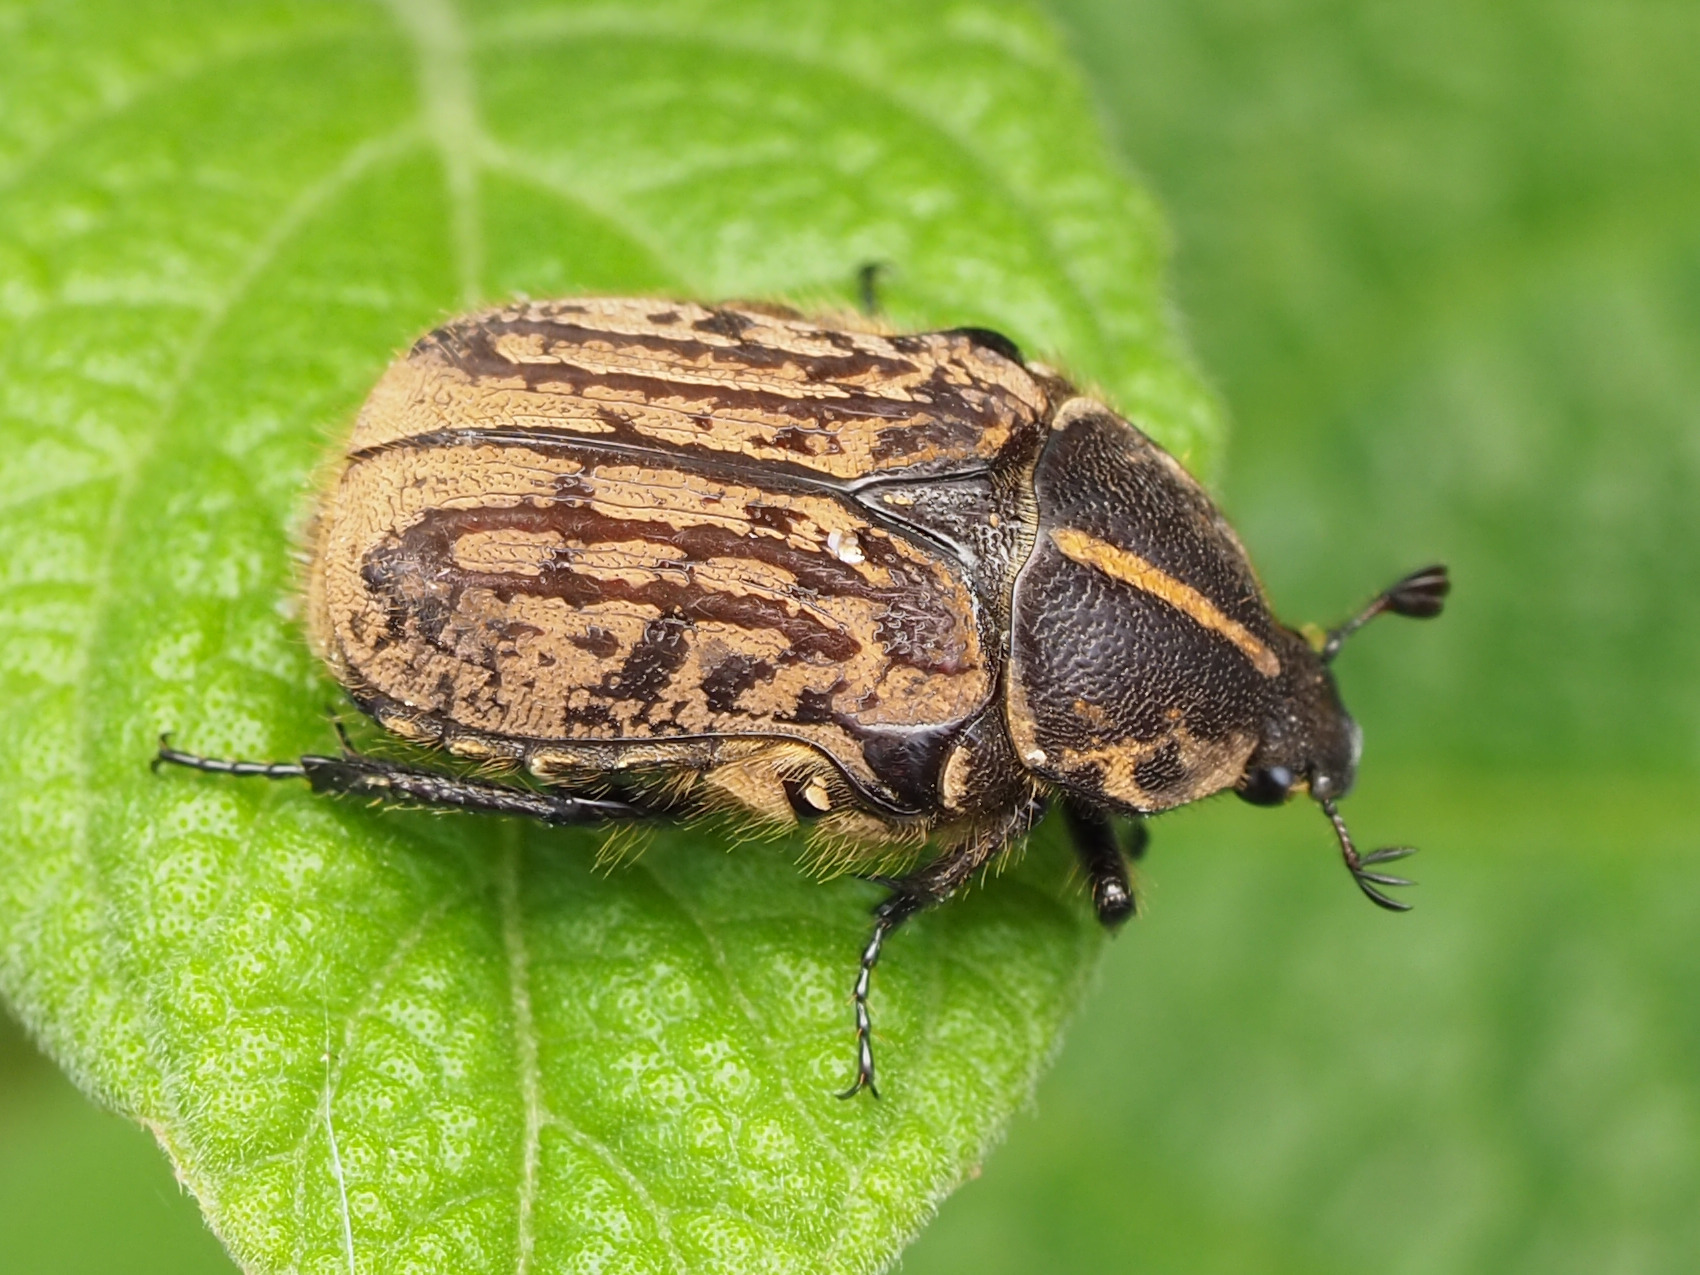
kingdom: Animalia
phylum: Arthropoda
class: Insecta
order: Coleoptera
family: Scarabaeidae
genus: Euphoria
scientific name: Euphoria leprosa
